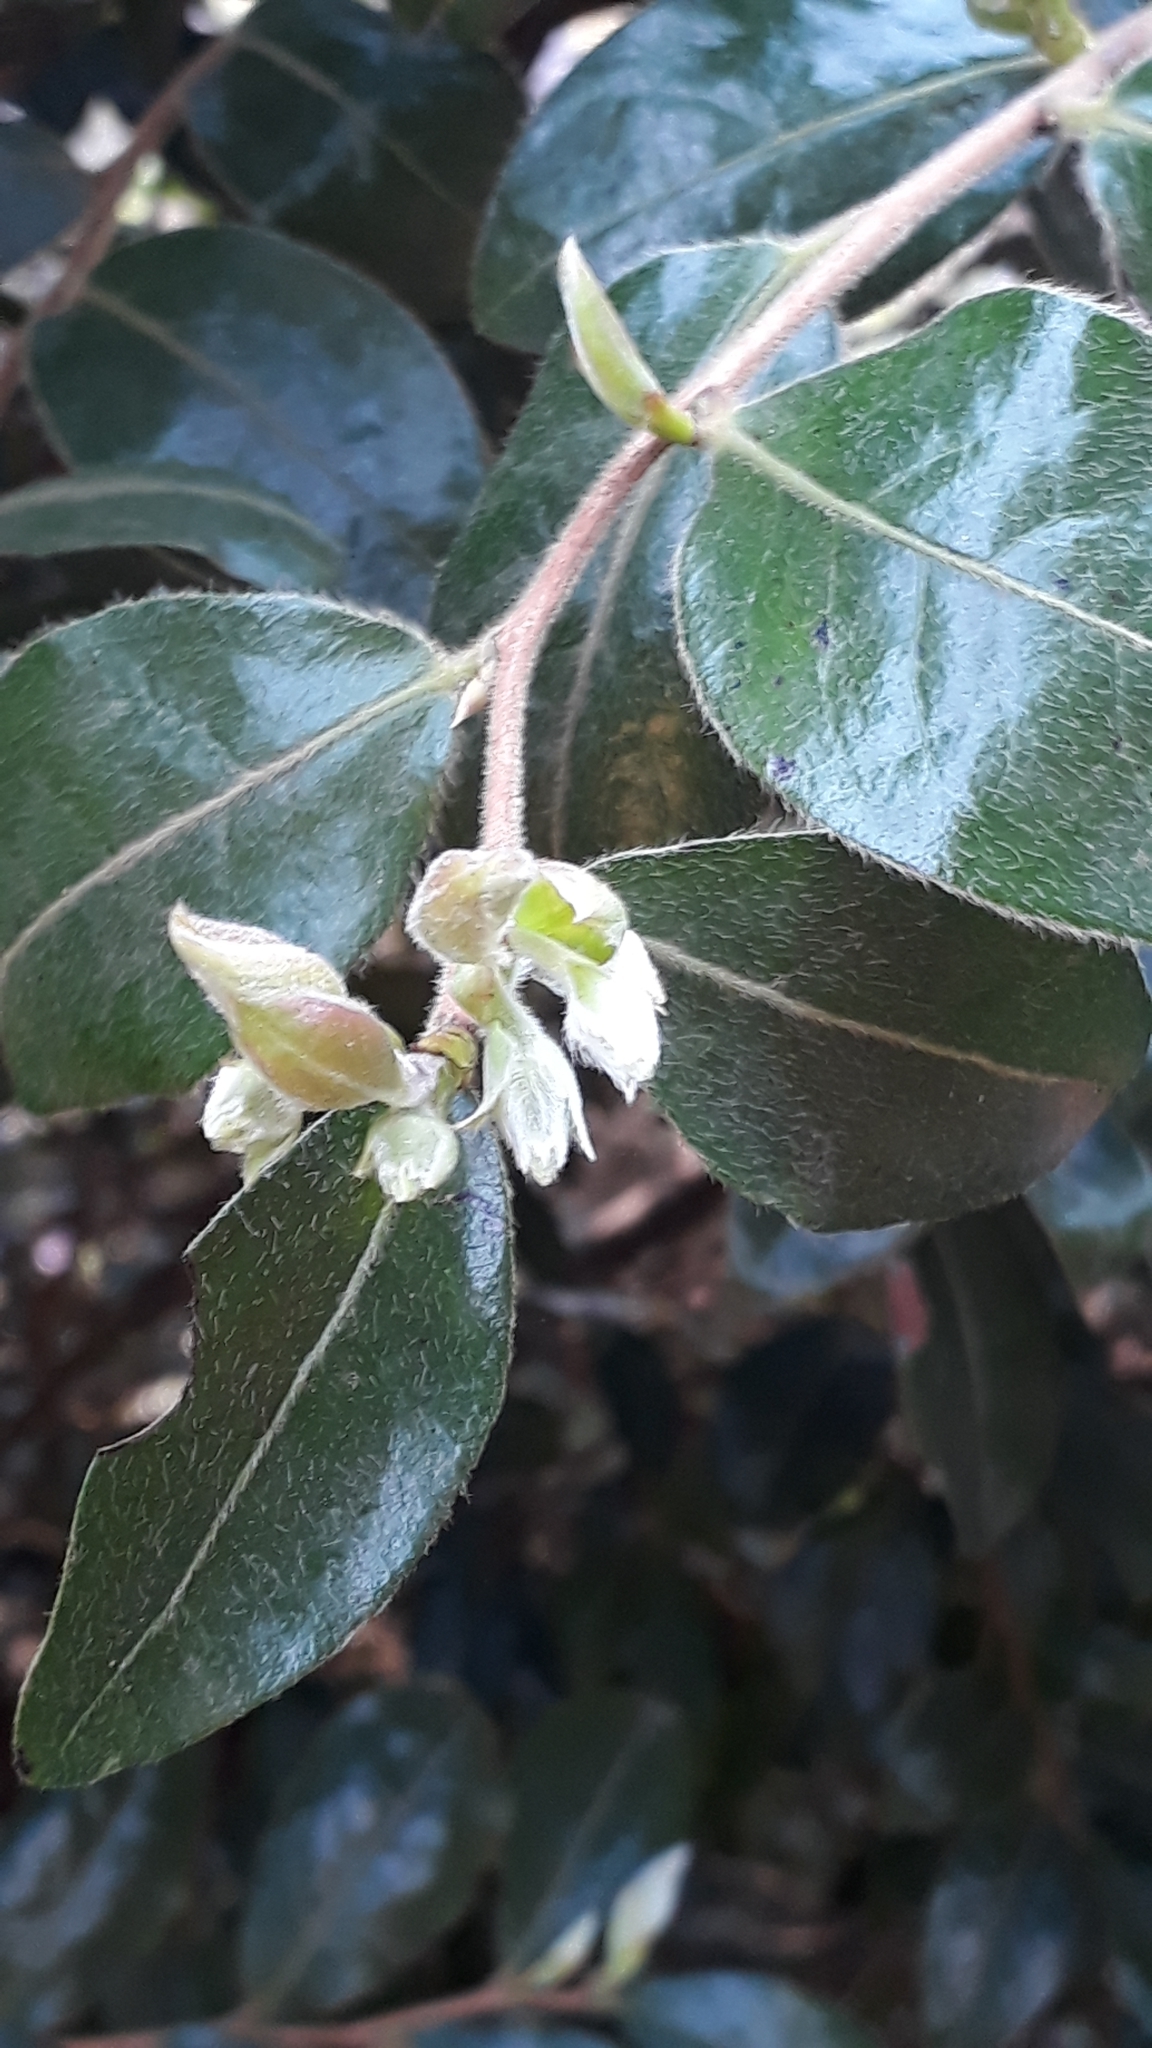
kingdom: Plantae
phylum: Tracheophyta
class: Magnoliopsida
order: Ericales
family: Ebenaceae
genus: Diospyros
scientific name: Diospyros whyteana
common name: Bladder-nut
